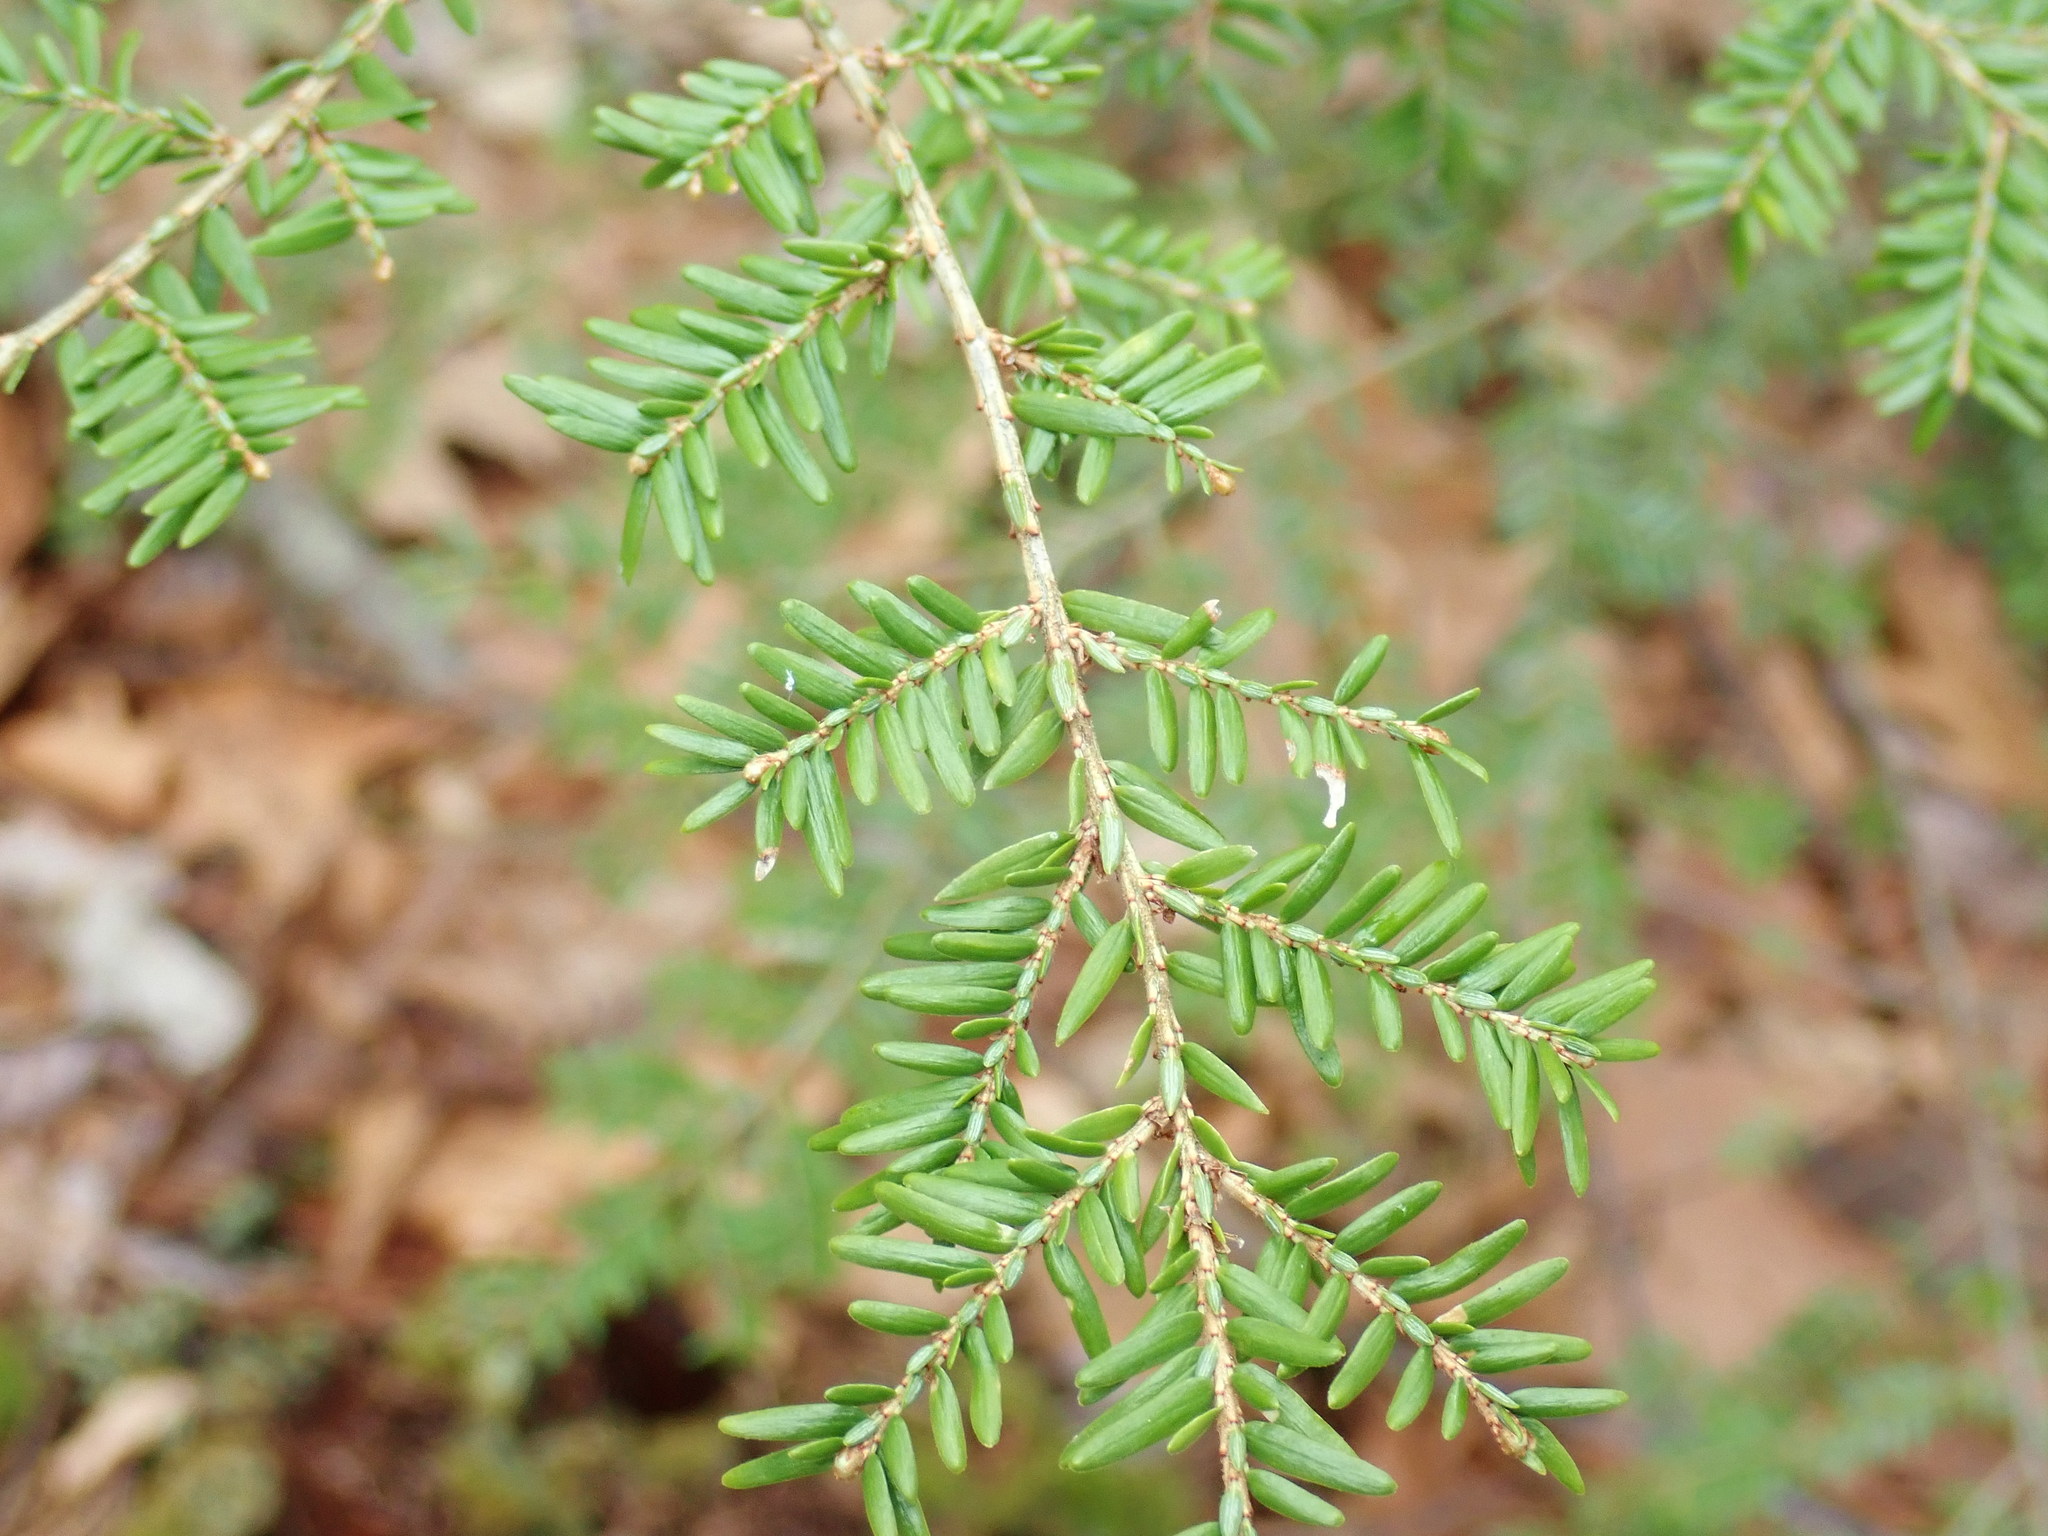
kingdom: Plantae
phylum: Tracheophyta
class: Pinopsida
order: Pinales
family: Pinaceae
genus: Tsuga
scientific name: Tsuga canadensis
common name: Eastern hemlock
